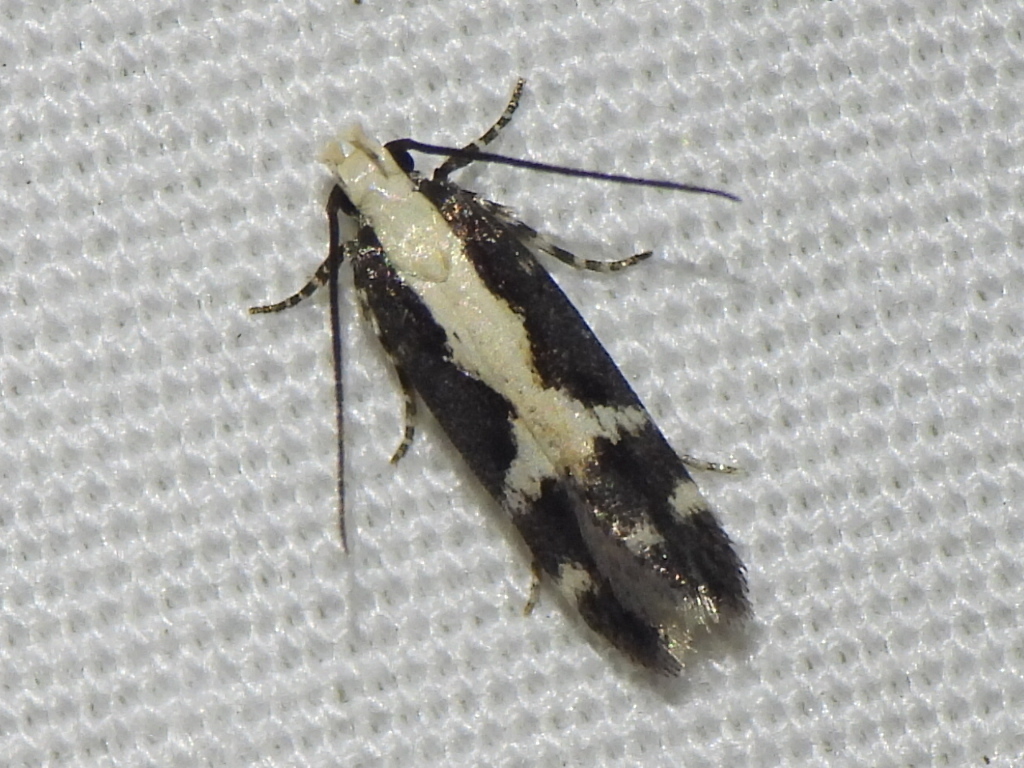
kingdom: Animalia
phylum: Arthropoda
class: Insecta
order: Lepidoptera
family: Gelechiidae
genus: Chionodes
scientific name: Chionodes dentella
